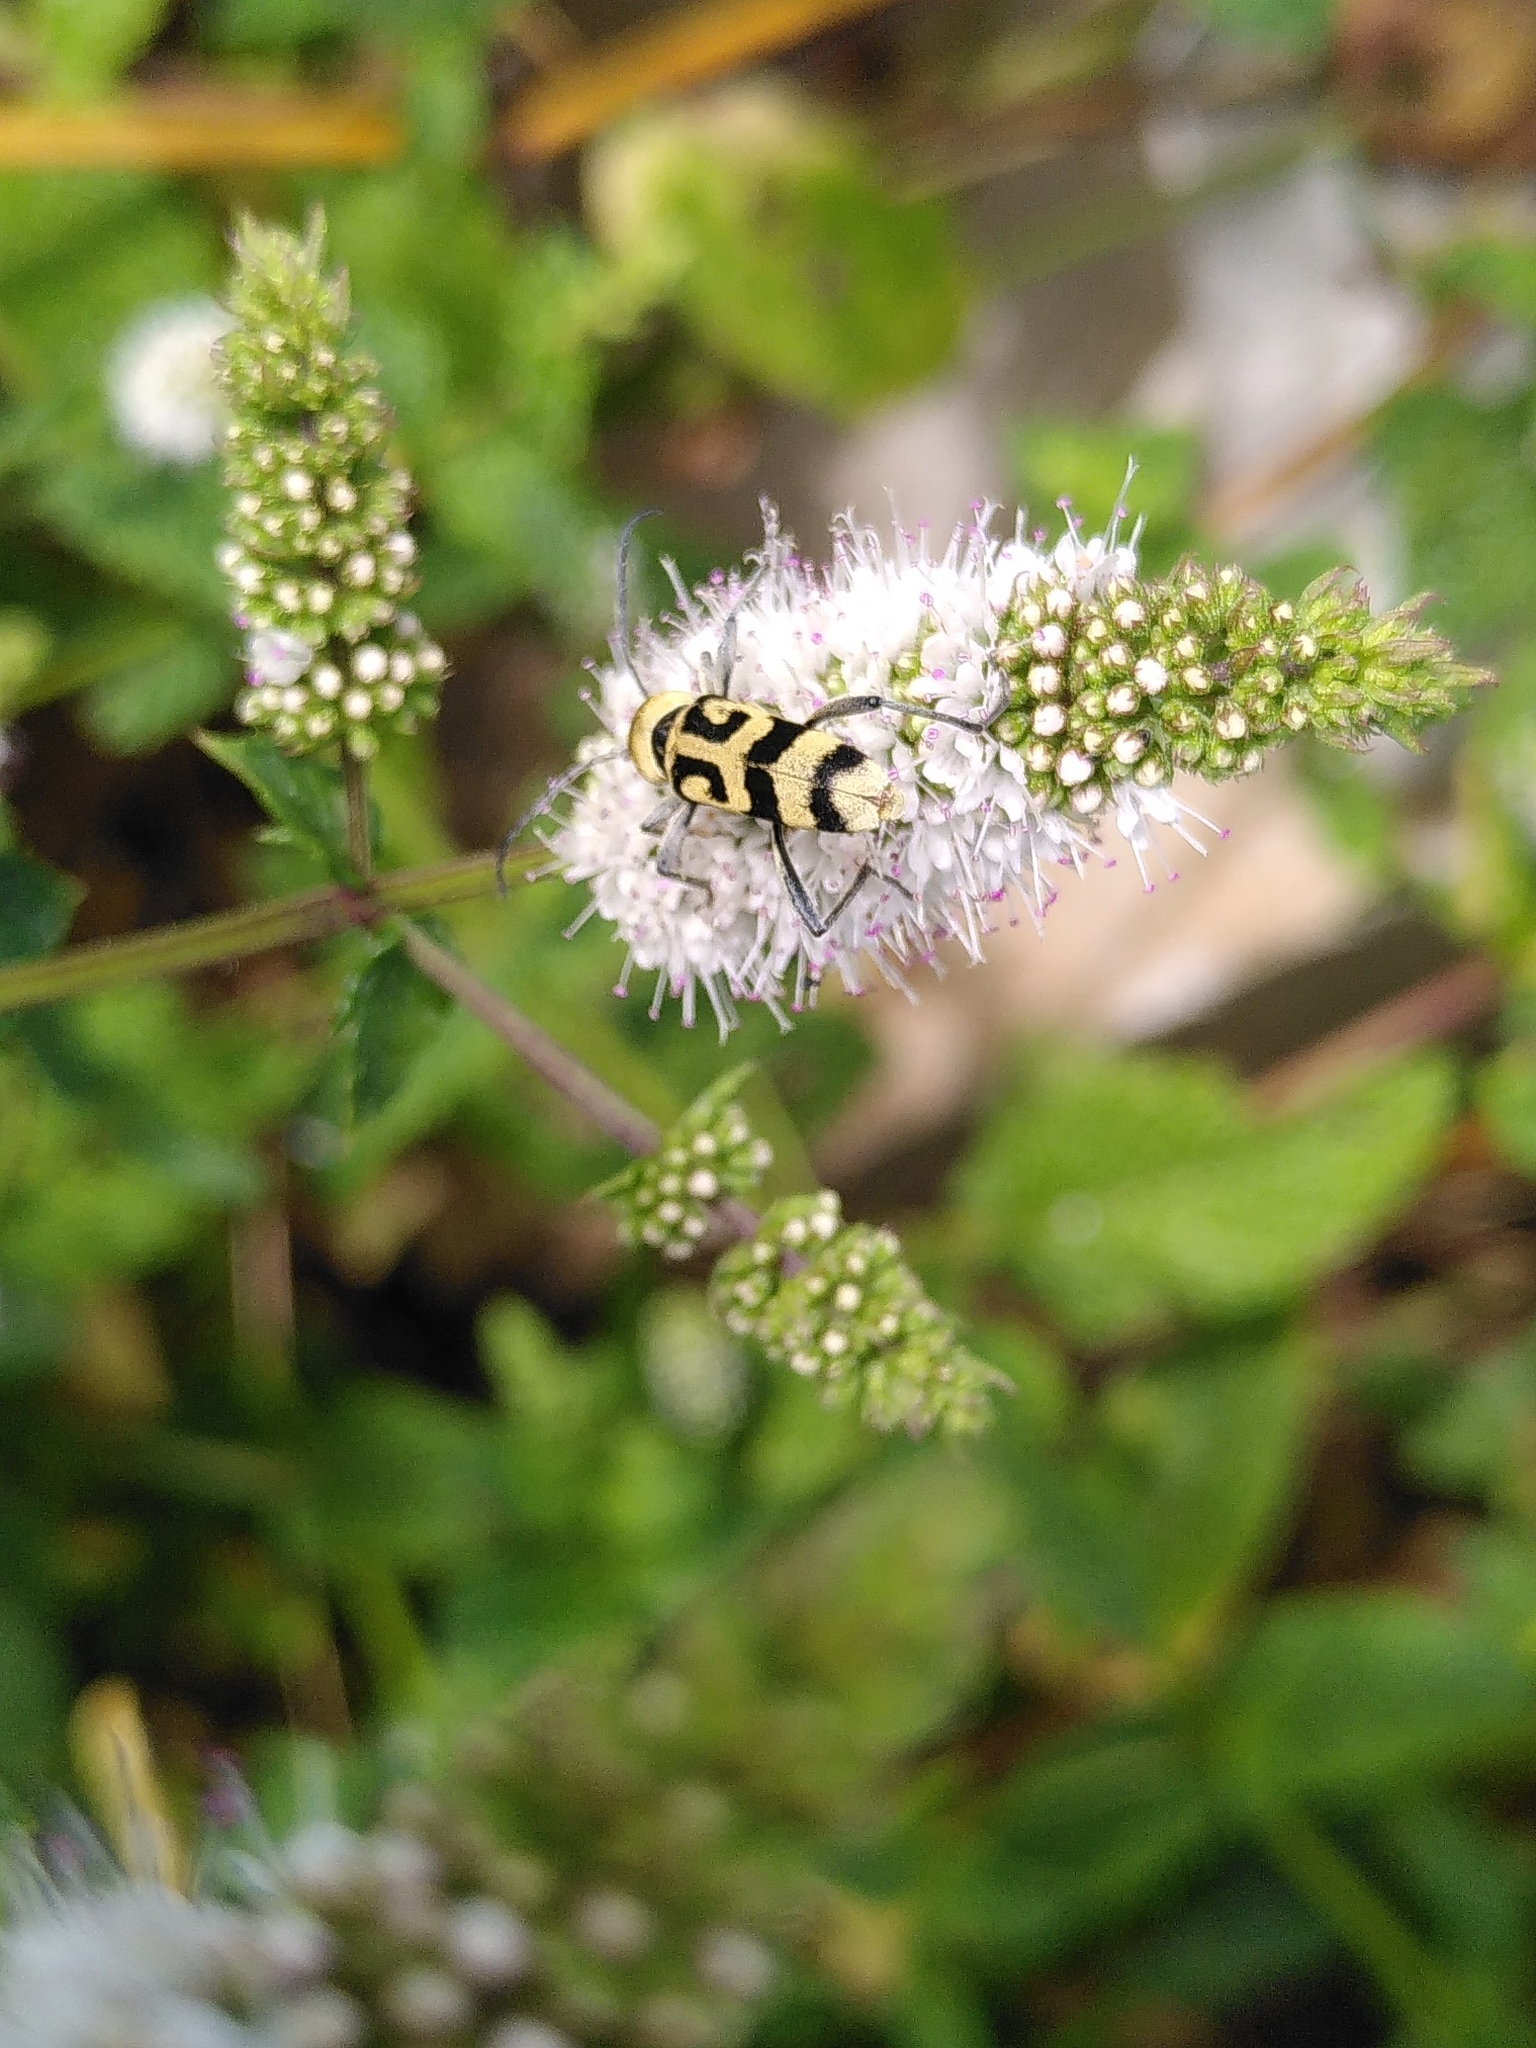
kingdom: Animalia
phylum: Arthropoda
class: Insecta
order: Coleoptera
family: Cerambycidae
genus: Chlorophorus
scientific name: Chlorophorus varius
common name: Grape wood borer
